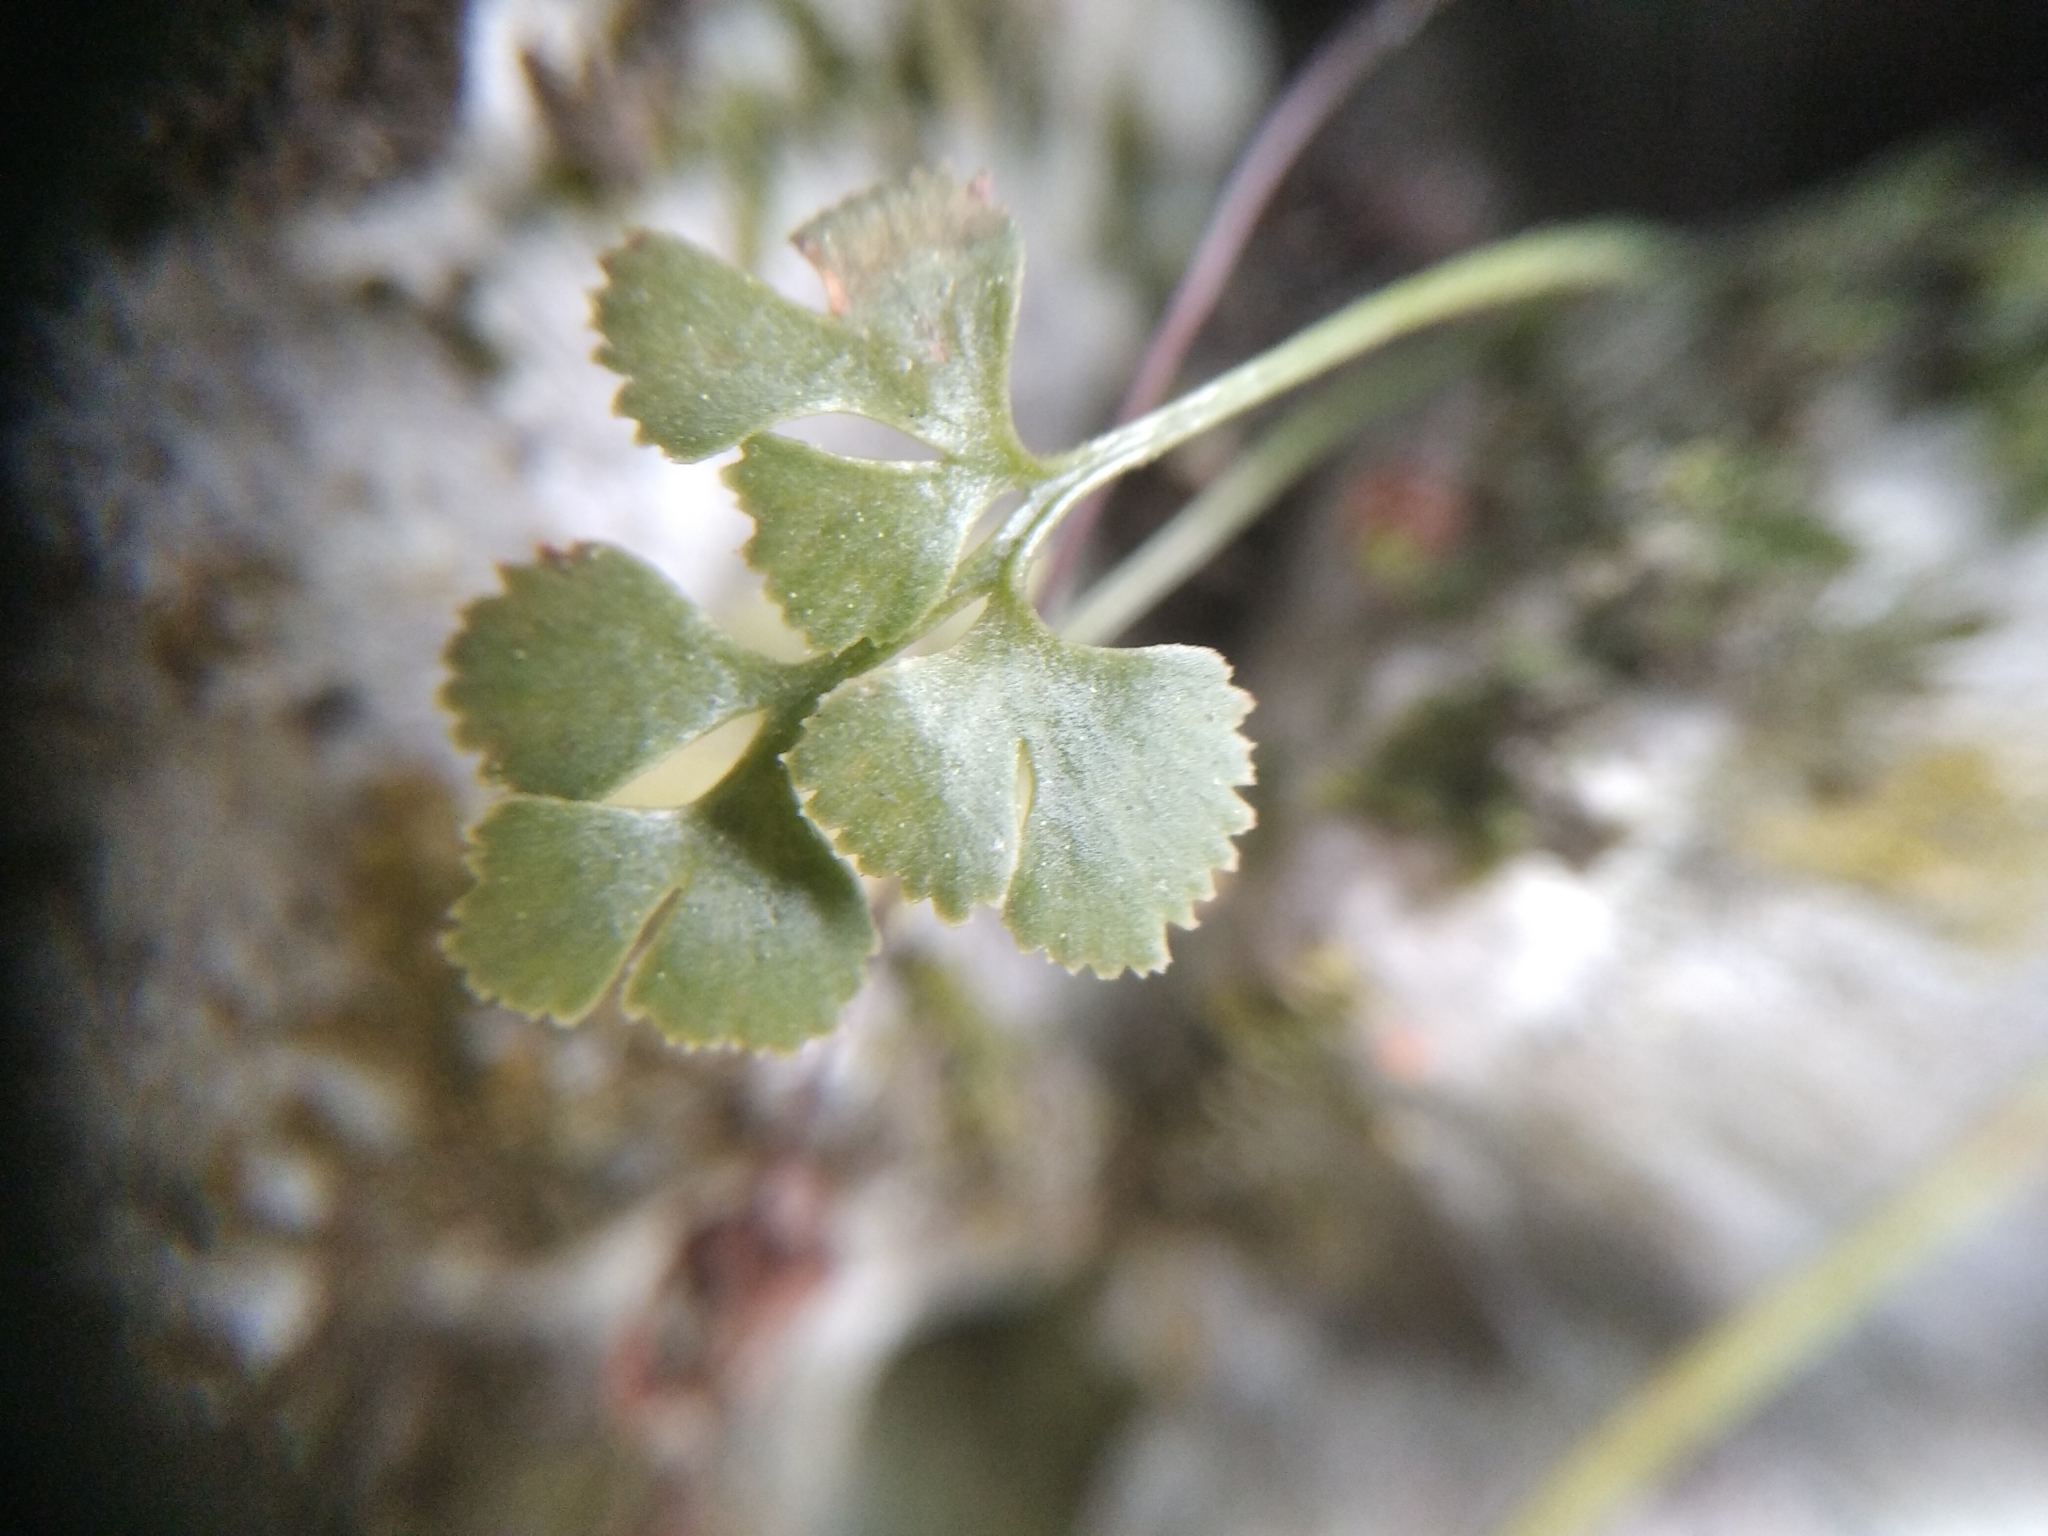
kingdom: Plantae
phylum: Tracheophyta
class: Polypodiopsida
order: Polypodiales
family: Aspleniaceae
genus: Asplenium
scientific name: Asplenium ruta-muraria
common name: Wall-rue
